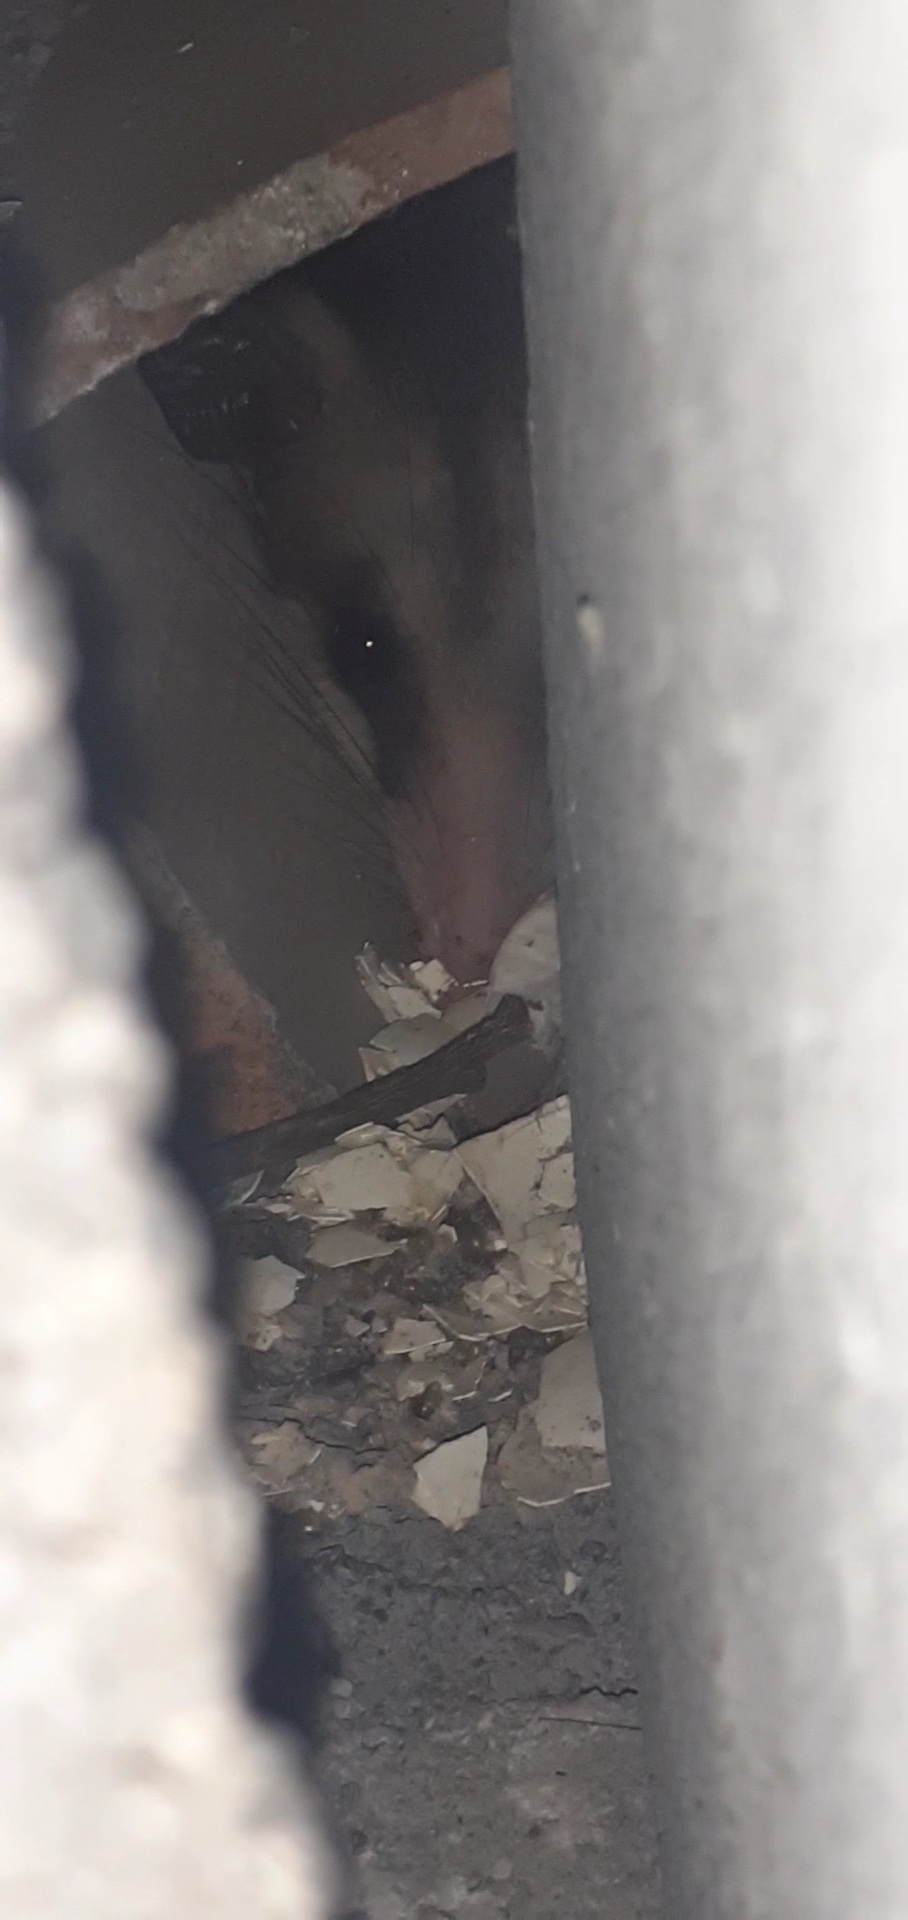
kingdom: Animalia
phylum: Chordata
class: Mammalia
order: Didelphimorphia
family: Didelphidae
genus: Didelphis
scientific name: Didelphis virginiana
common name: Virginia opossum
